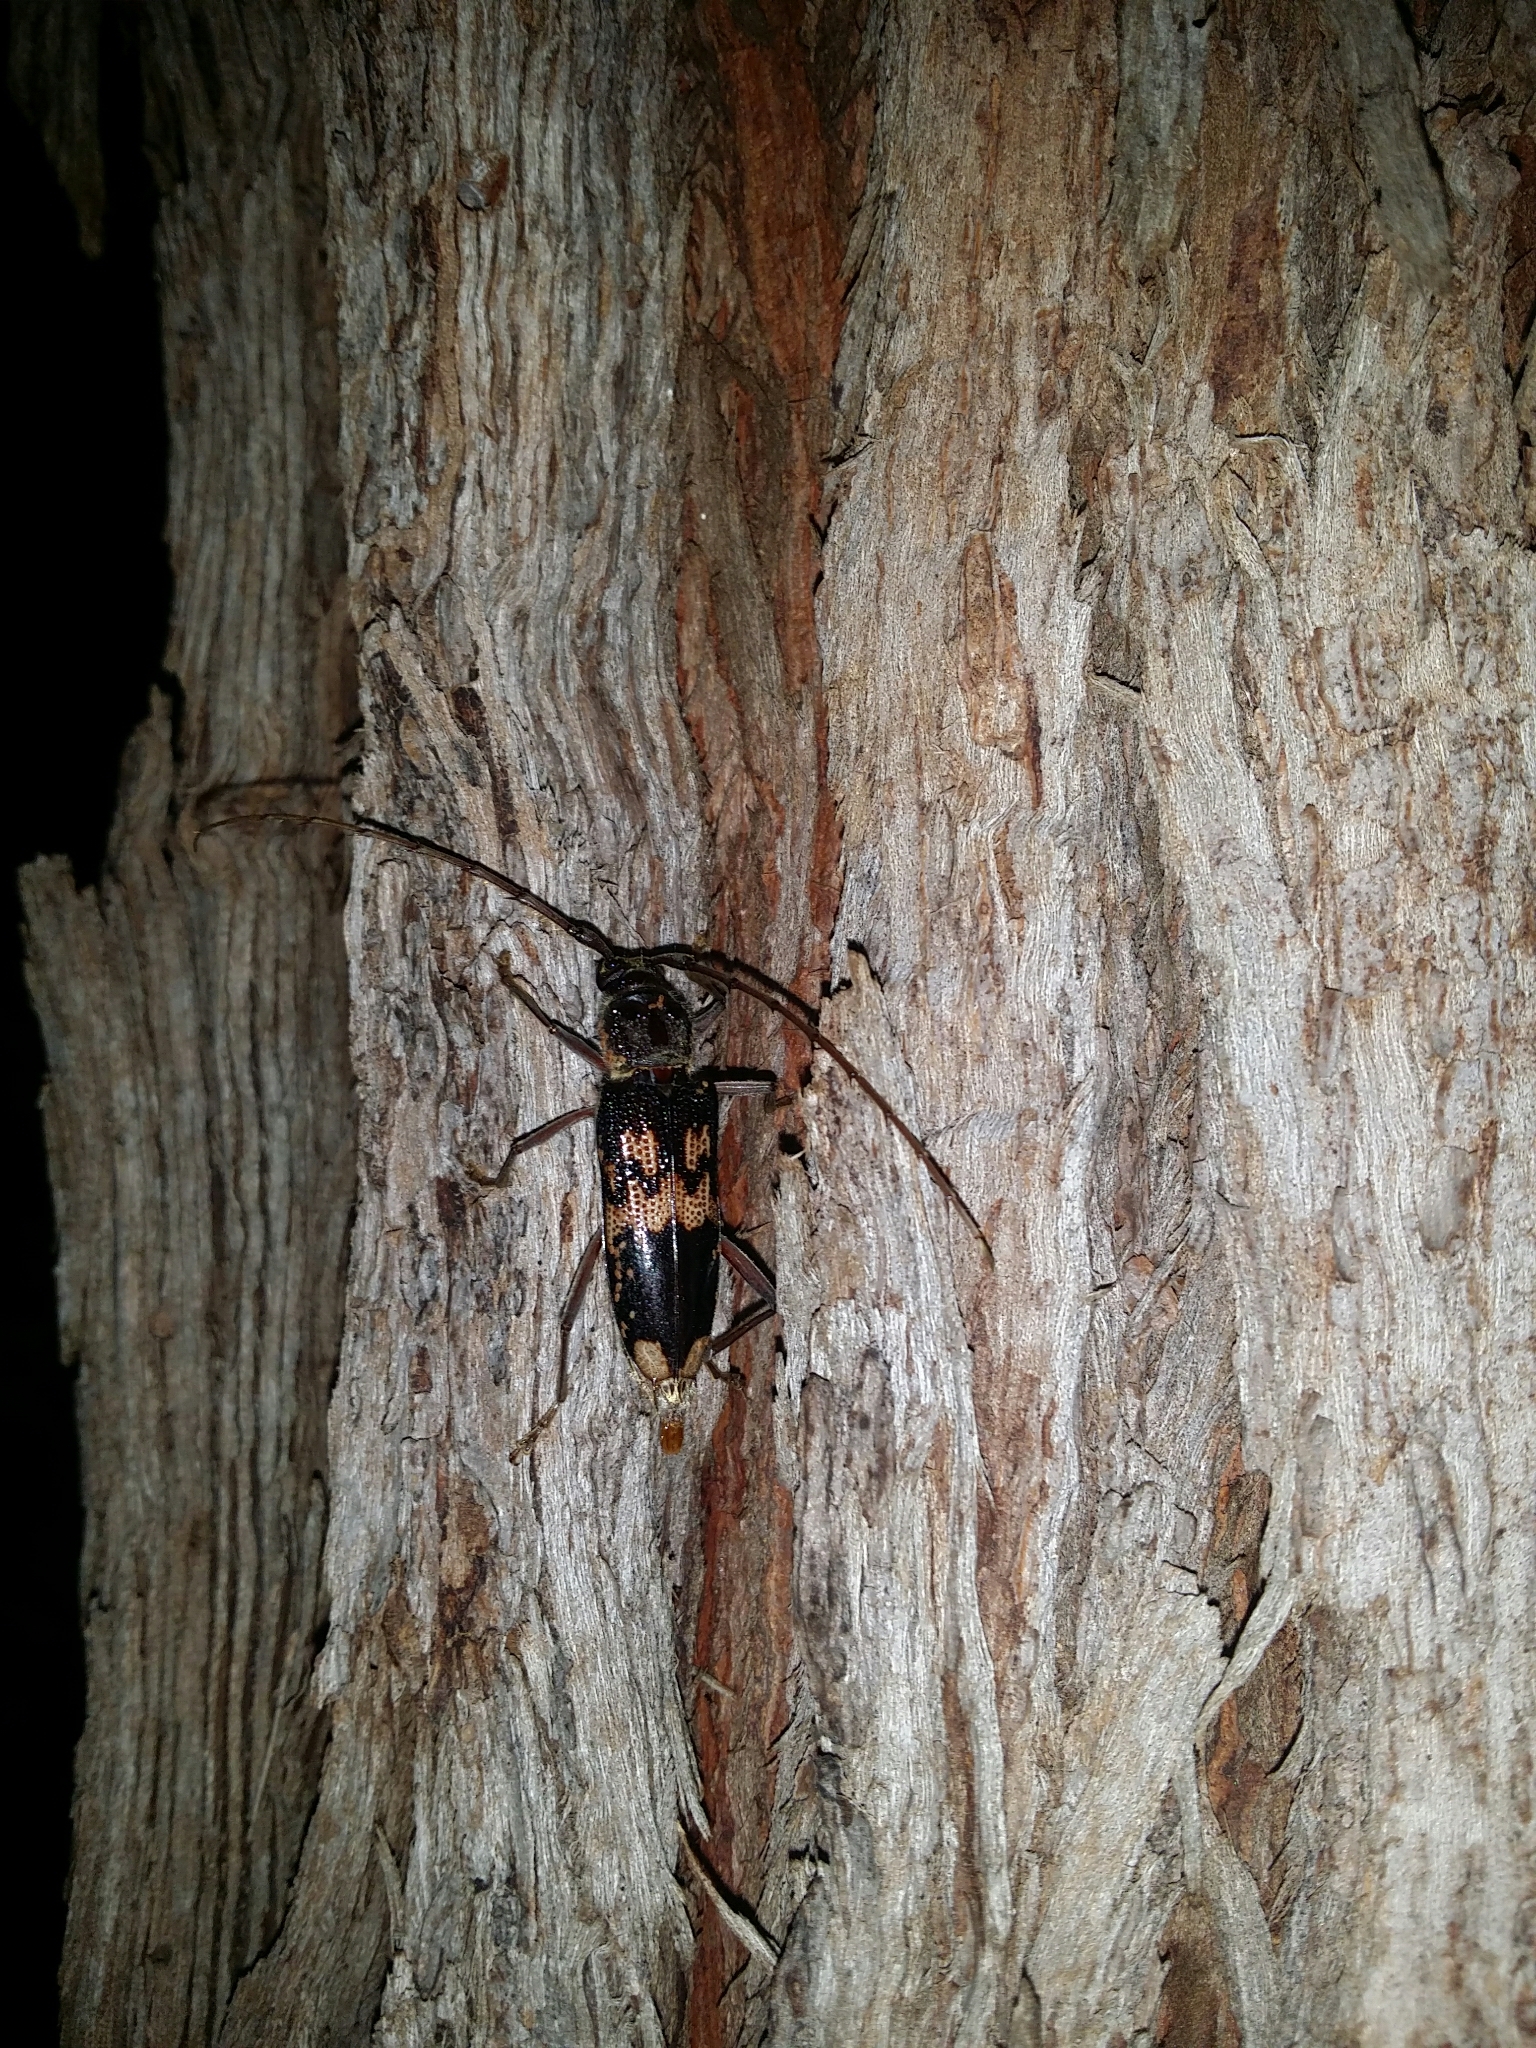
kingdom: Animalia
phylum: Arthropoda
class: Insecta
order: Coleoptera
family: Cerambycidae
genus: Phoracantha
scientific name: Phoracantha semipunctata
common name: Eucalyptus longhorn borer
